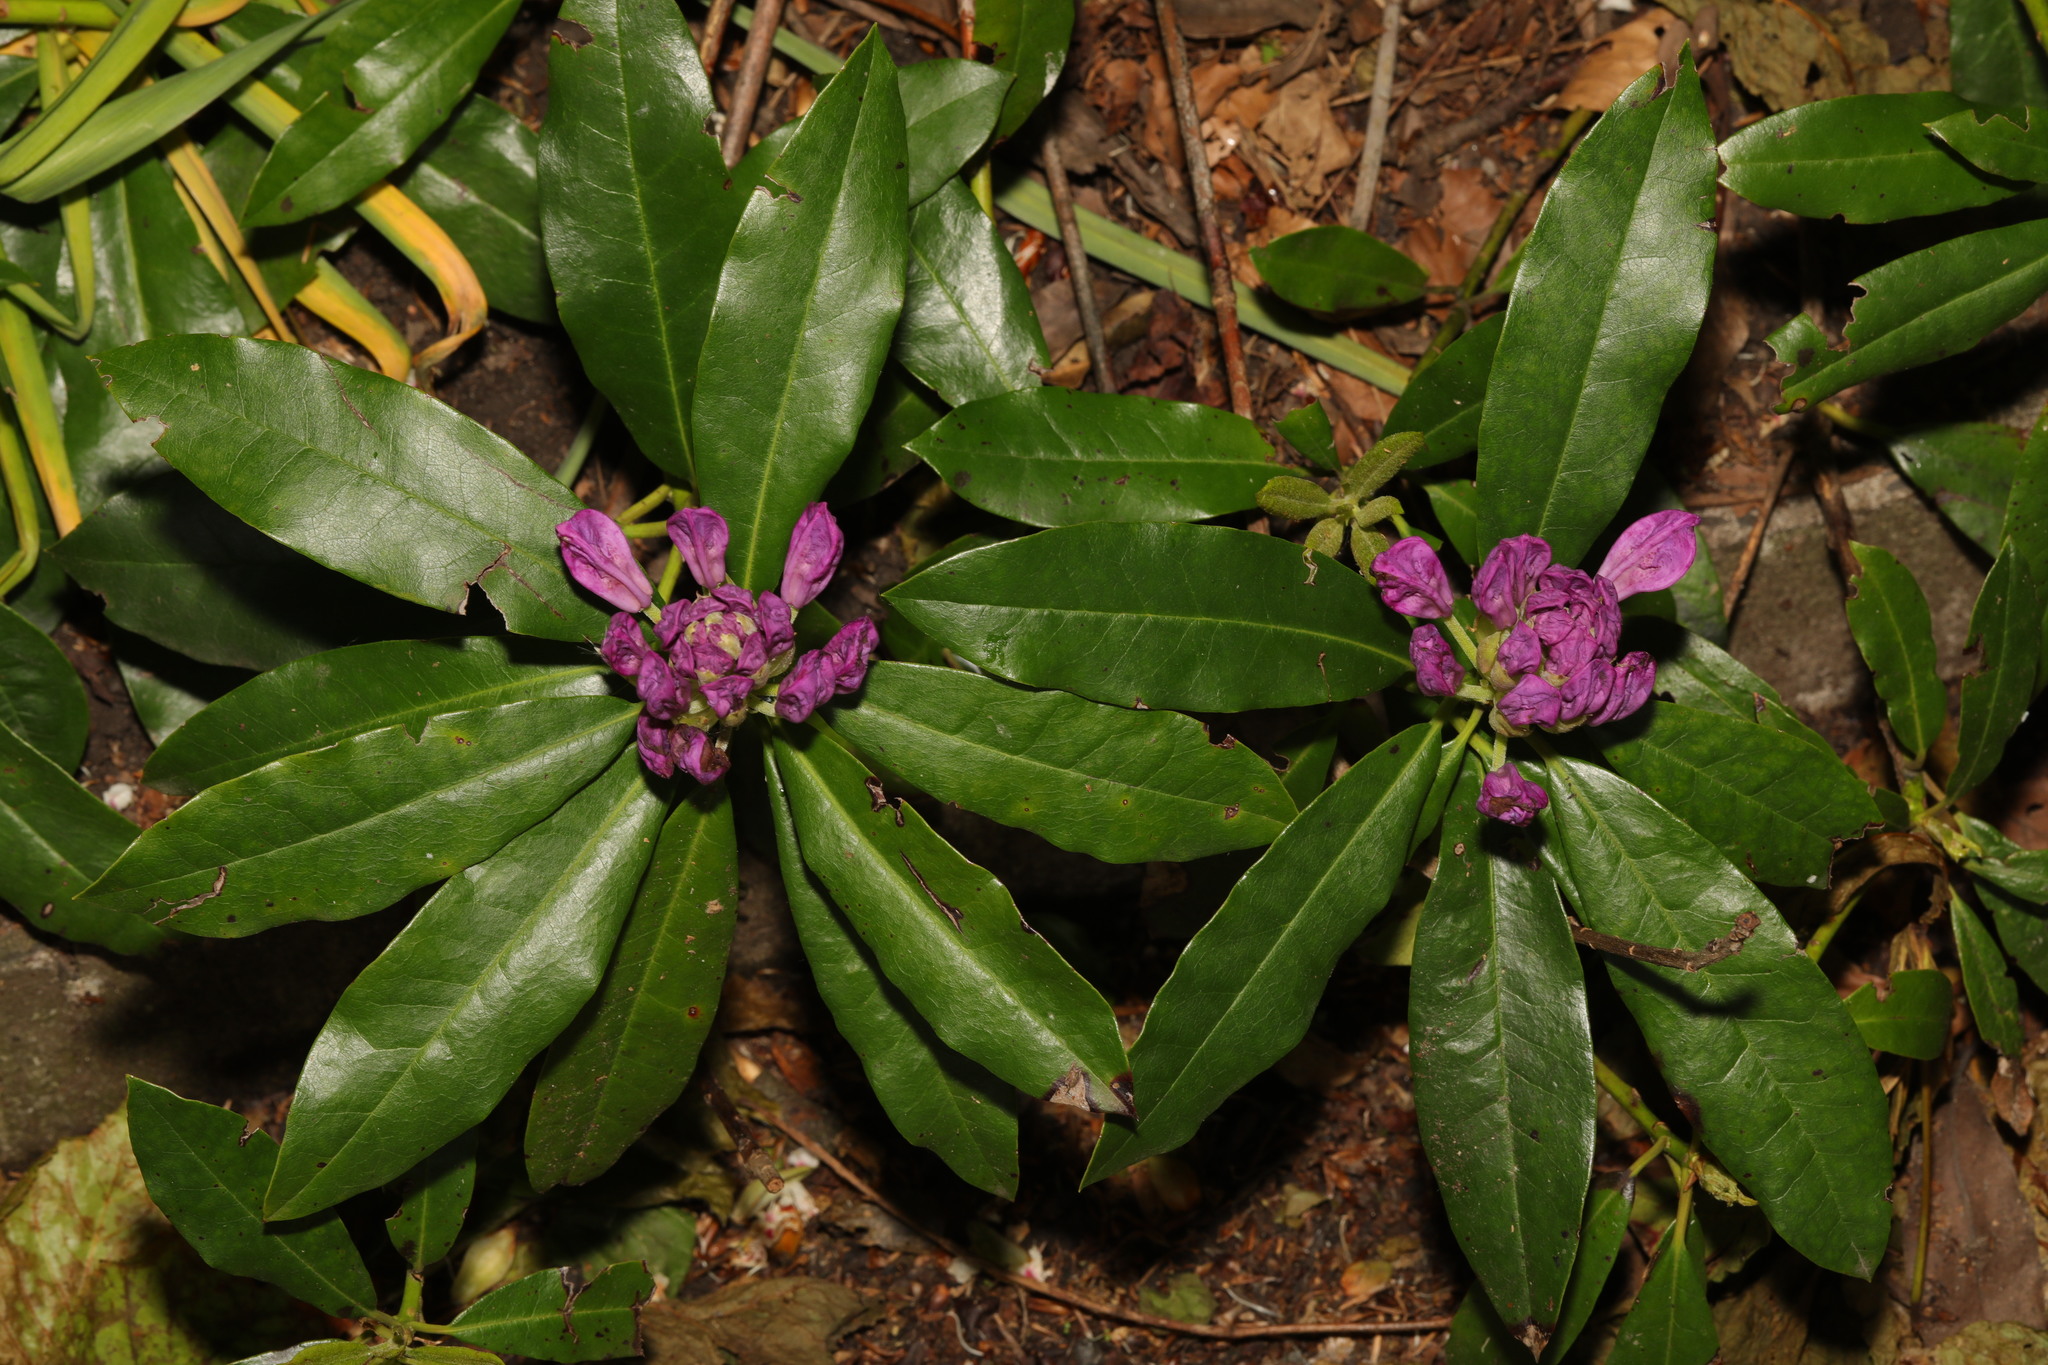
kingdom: Plantae
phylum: Tracheophyta
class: Magnoliopsida
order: Ericales
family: Ericaceae
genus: Rhododendron
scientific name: Rhododendron ponticum
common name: Rhododendron
